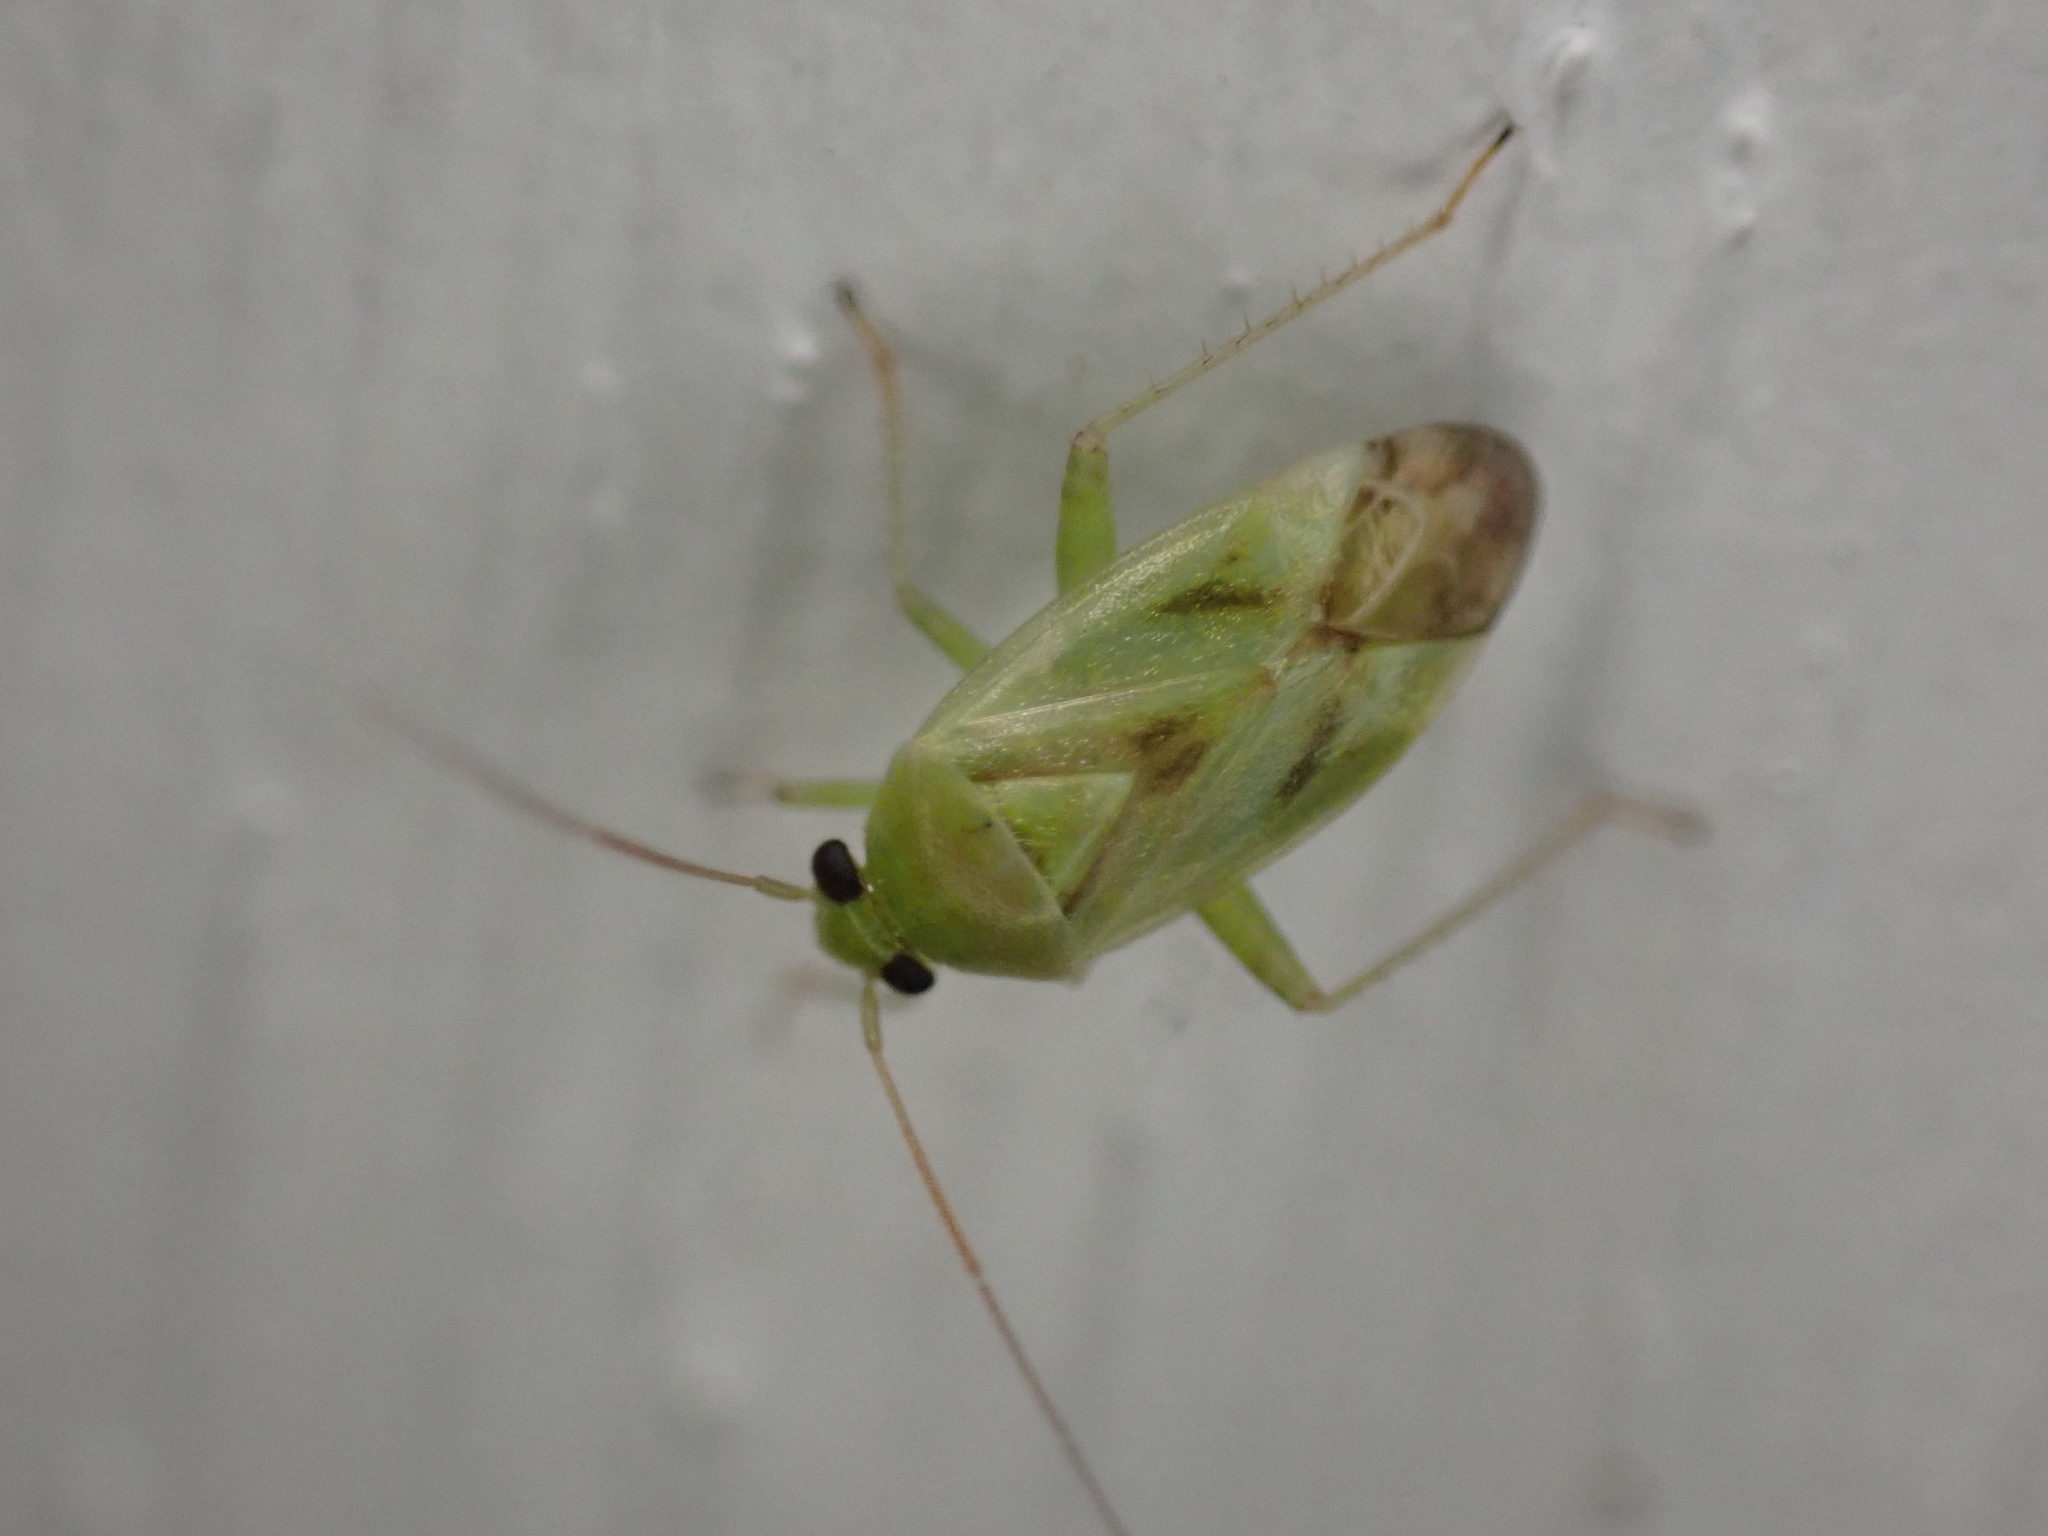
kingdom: Animalia
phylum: Arthropoda
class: Insecta
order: Hemiptera
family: Miridae
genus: Taylorilygus
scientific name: Taylorilygus apicalis
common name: Plant bug
